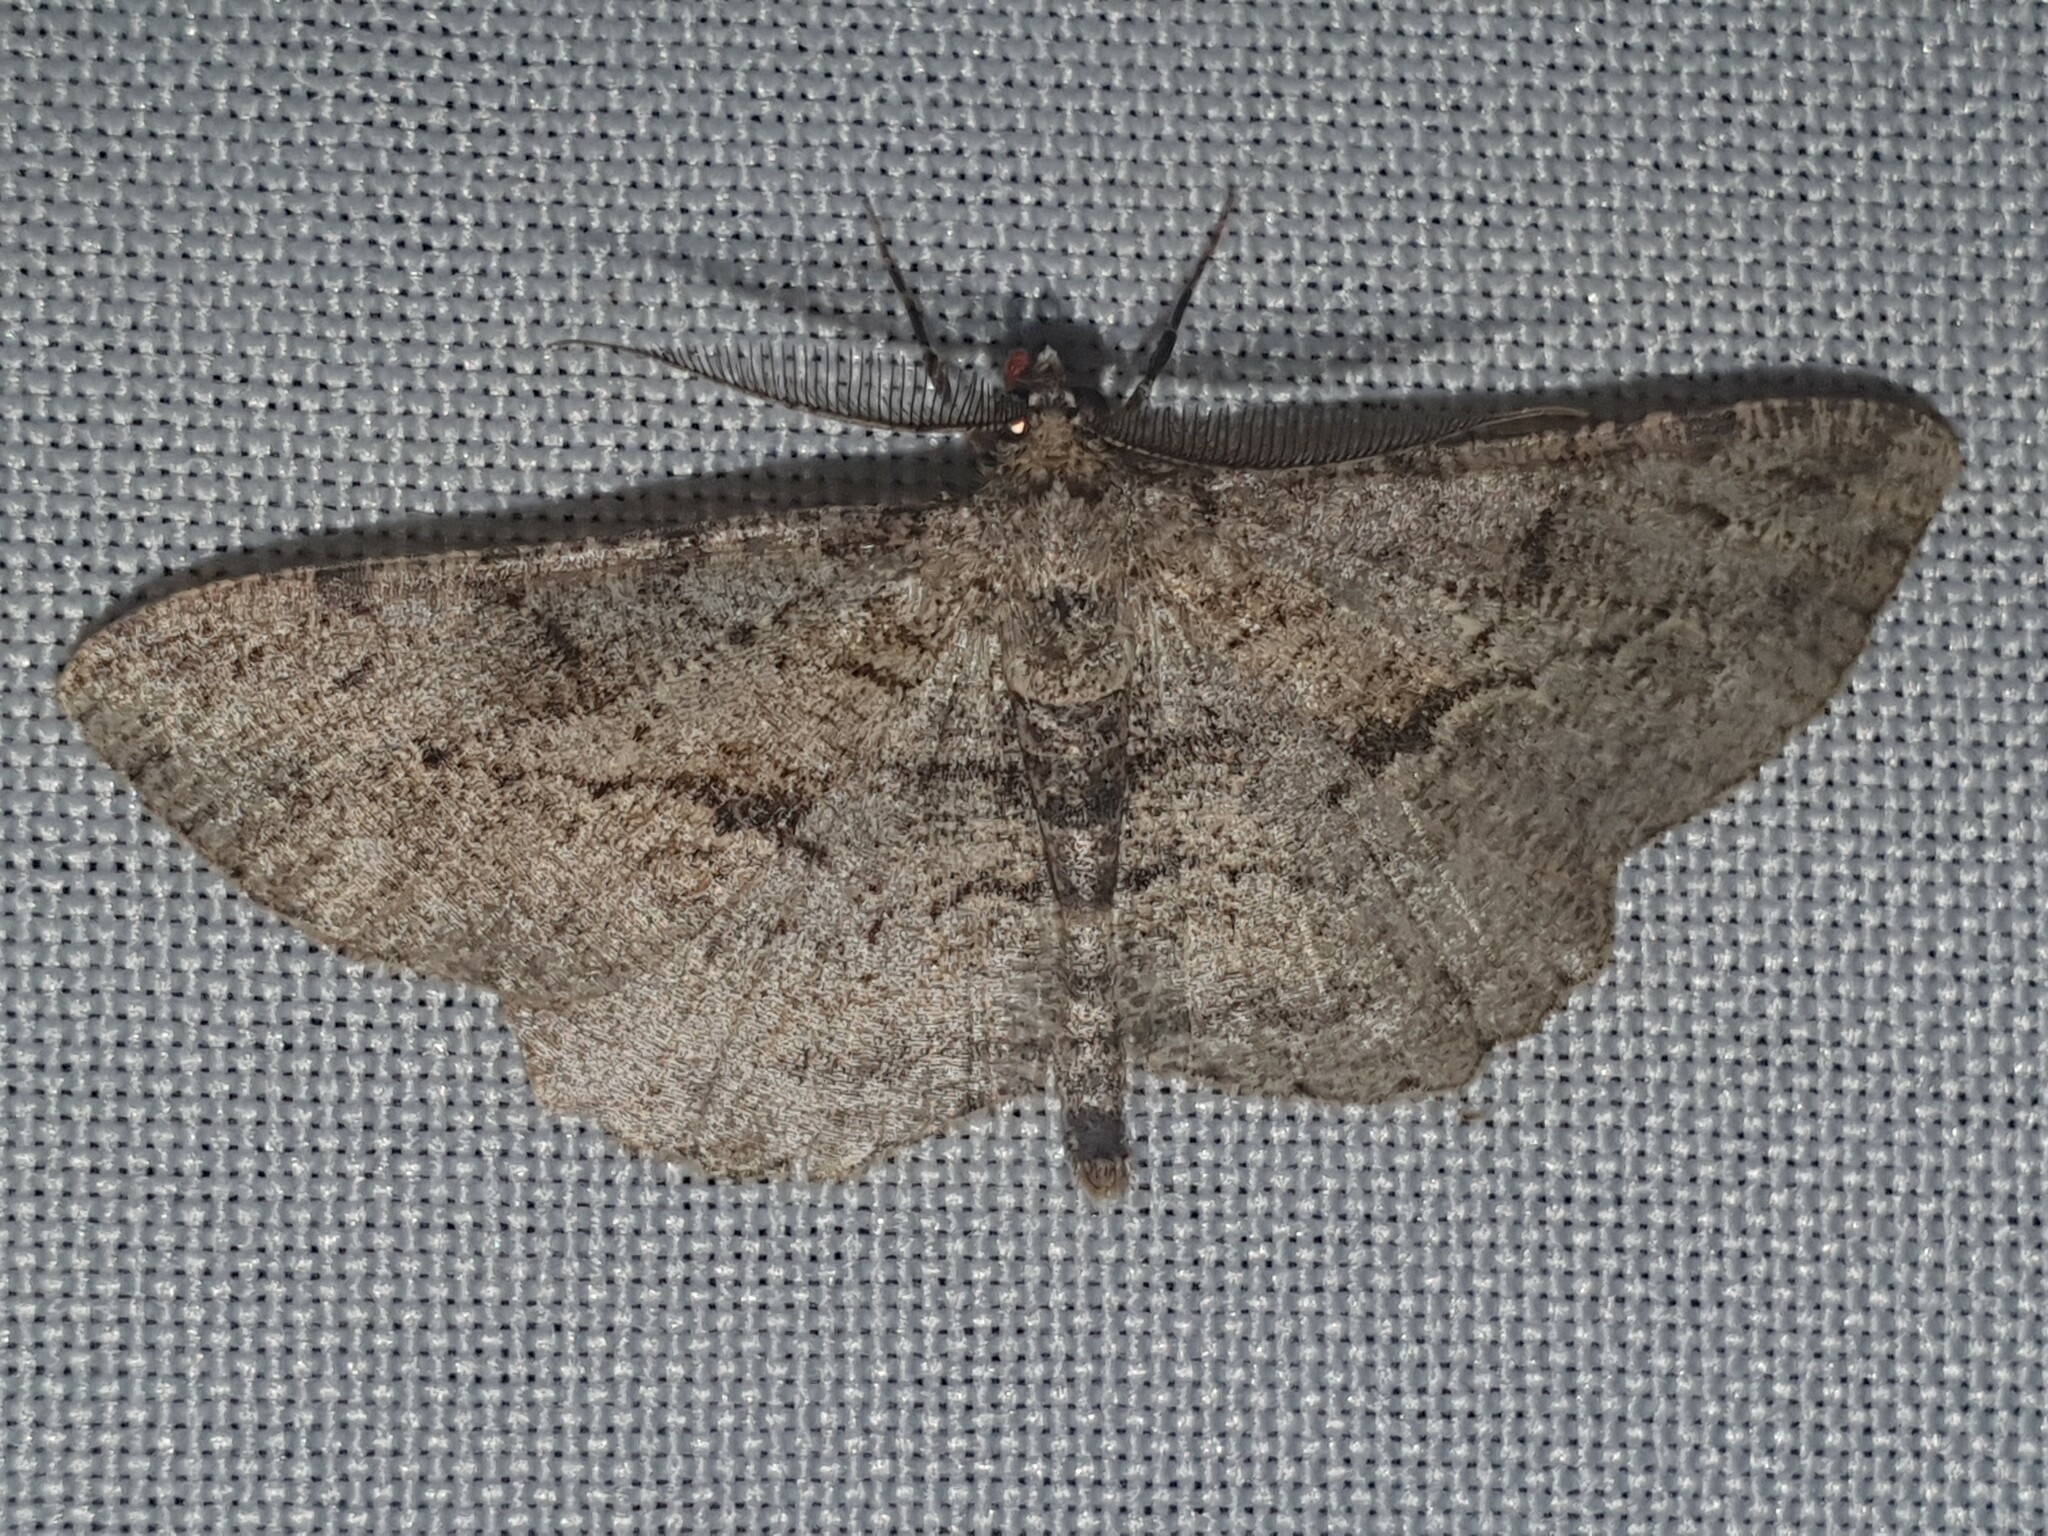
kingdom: Animalia
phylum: Arthropoda
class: Insecta
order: Lepidoptera
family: Geometridae
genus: Peribatodes
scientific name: Peribatodes rhomboidaria
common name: Willow beauty
